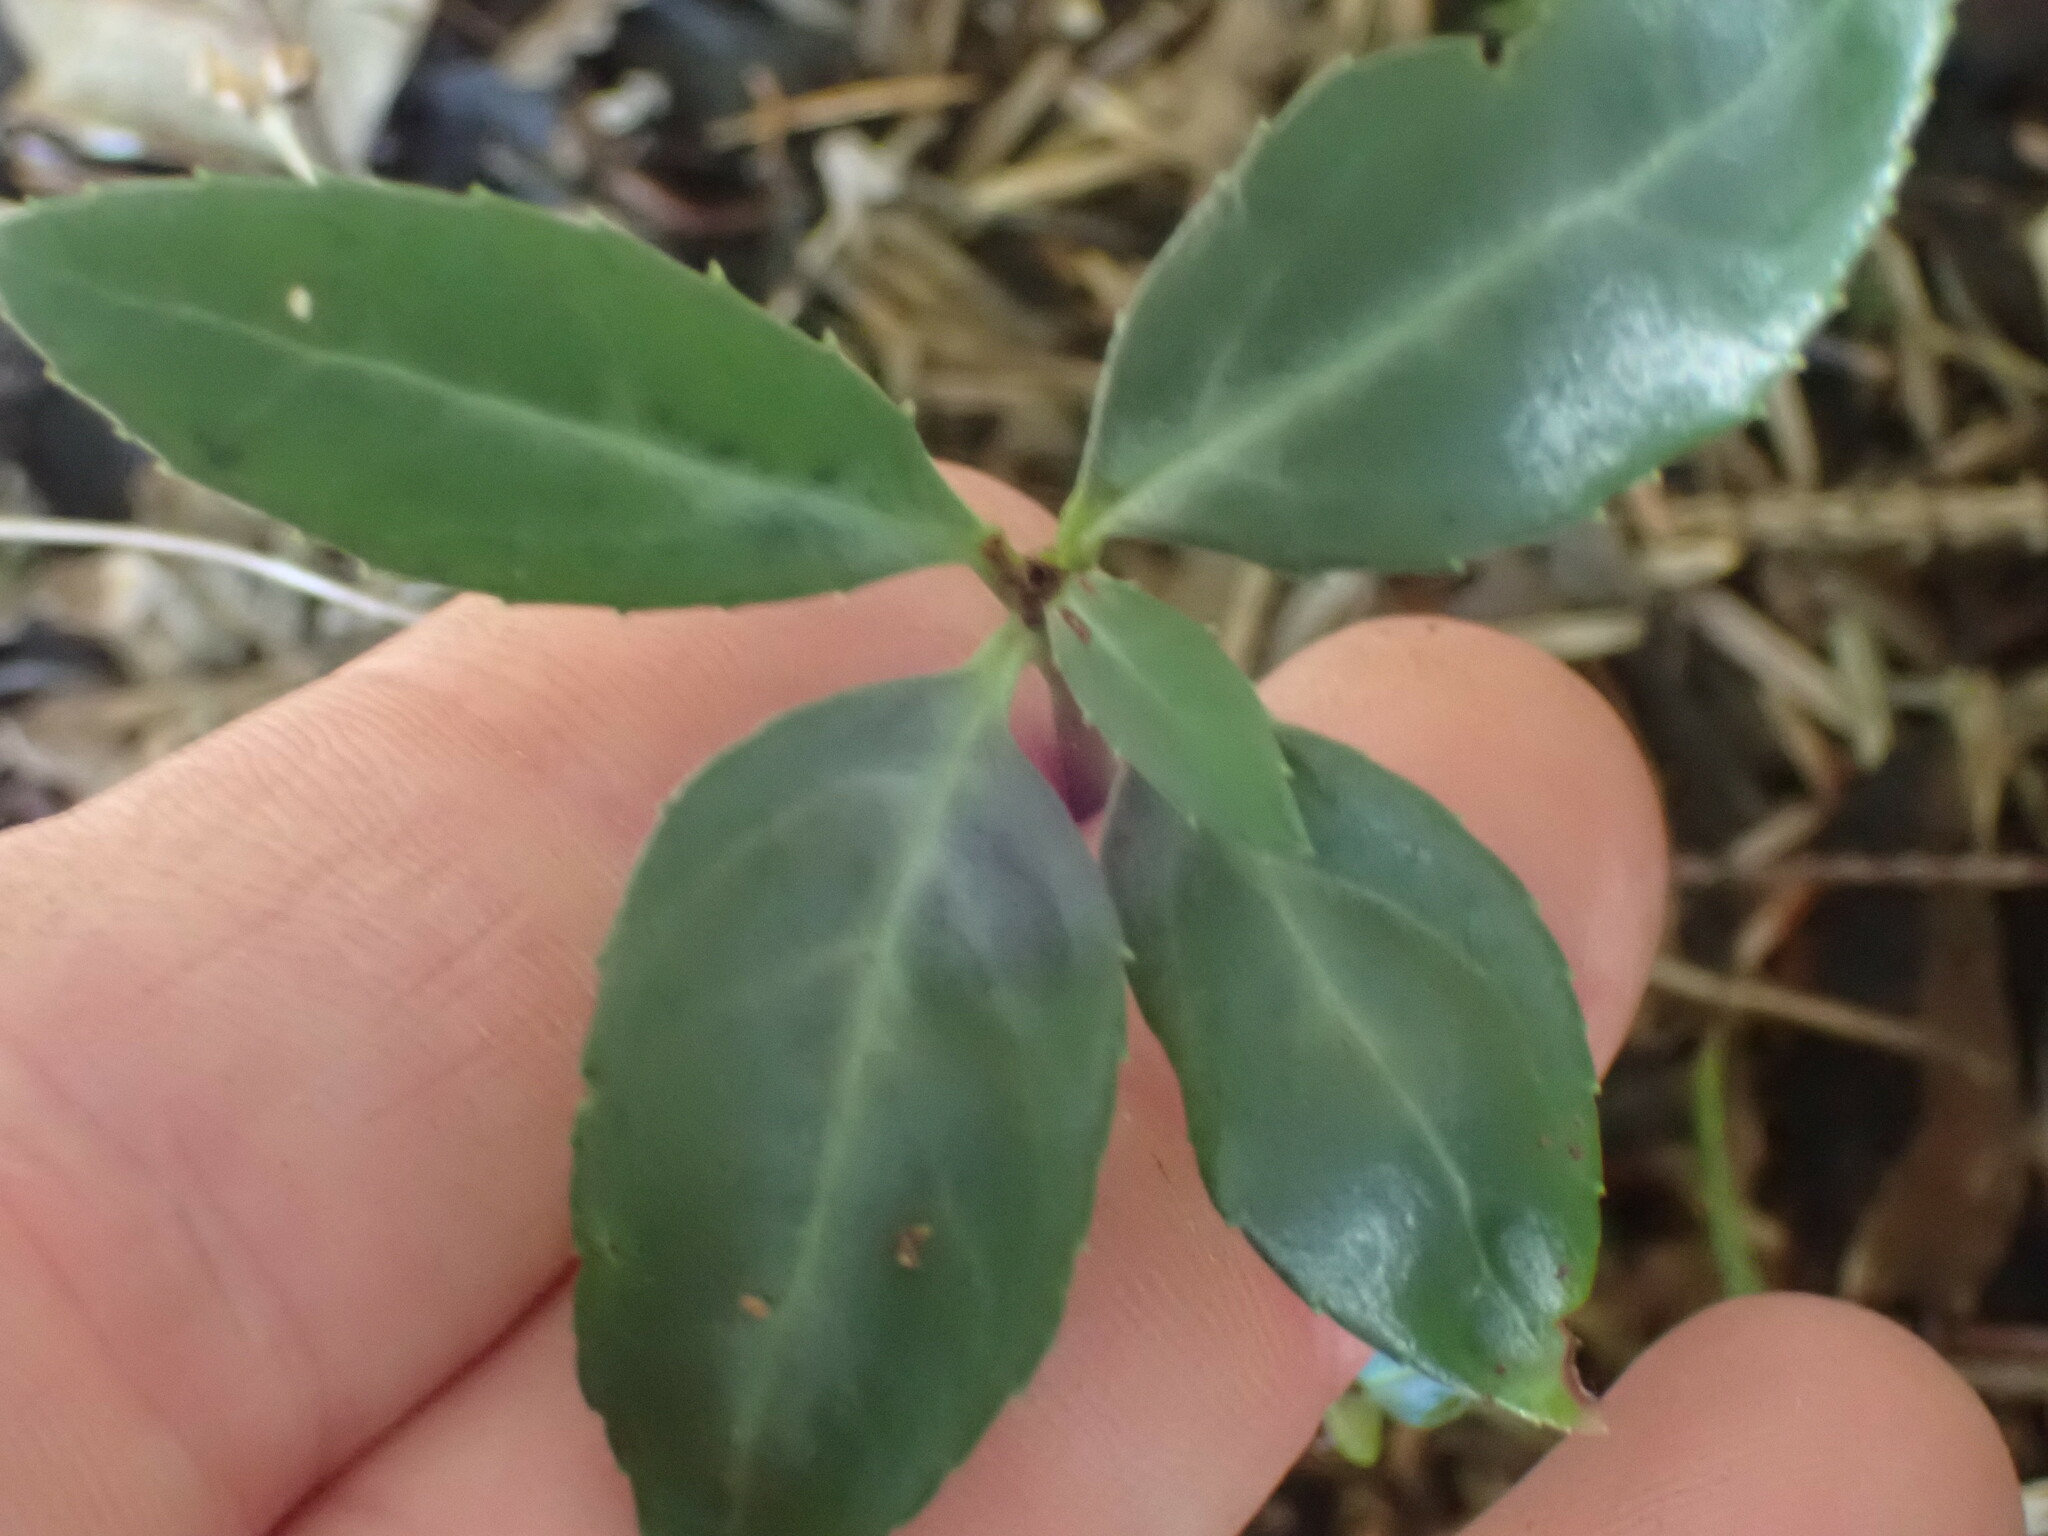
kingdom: Plantae
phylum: Tracheophyta
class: Magnoliopsida
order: Ericales
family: Ericaceae
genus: Chimaphila
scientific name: Chimaphila menziesii
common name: Menzies' pipsissewa
